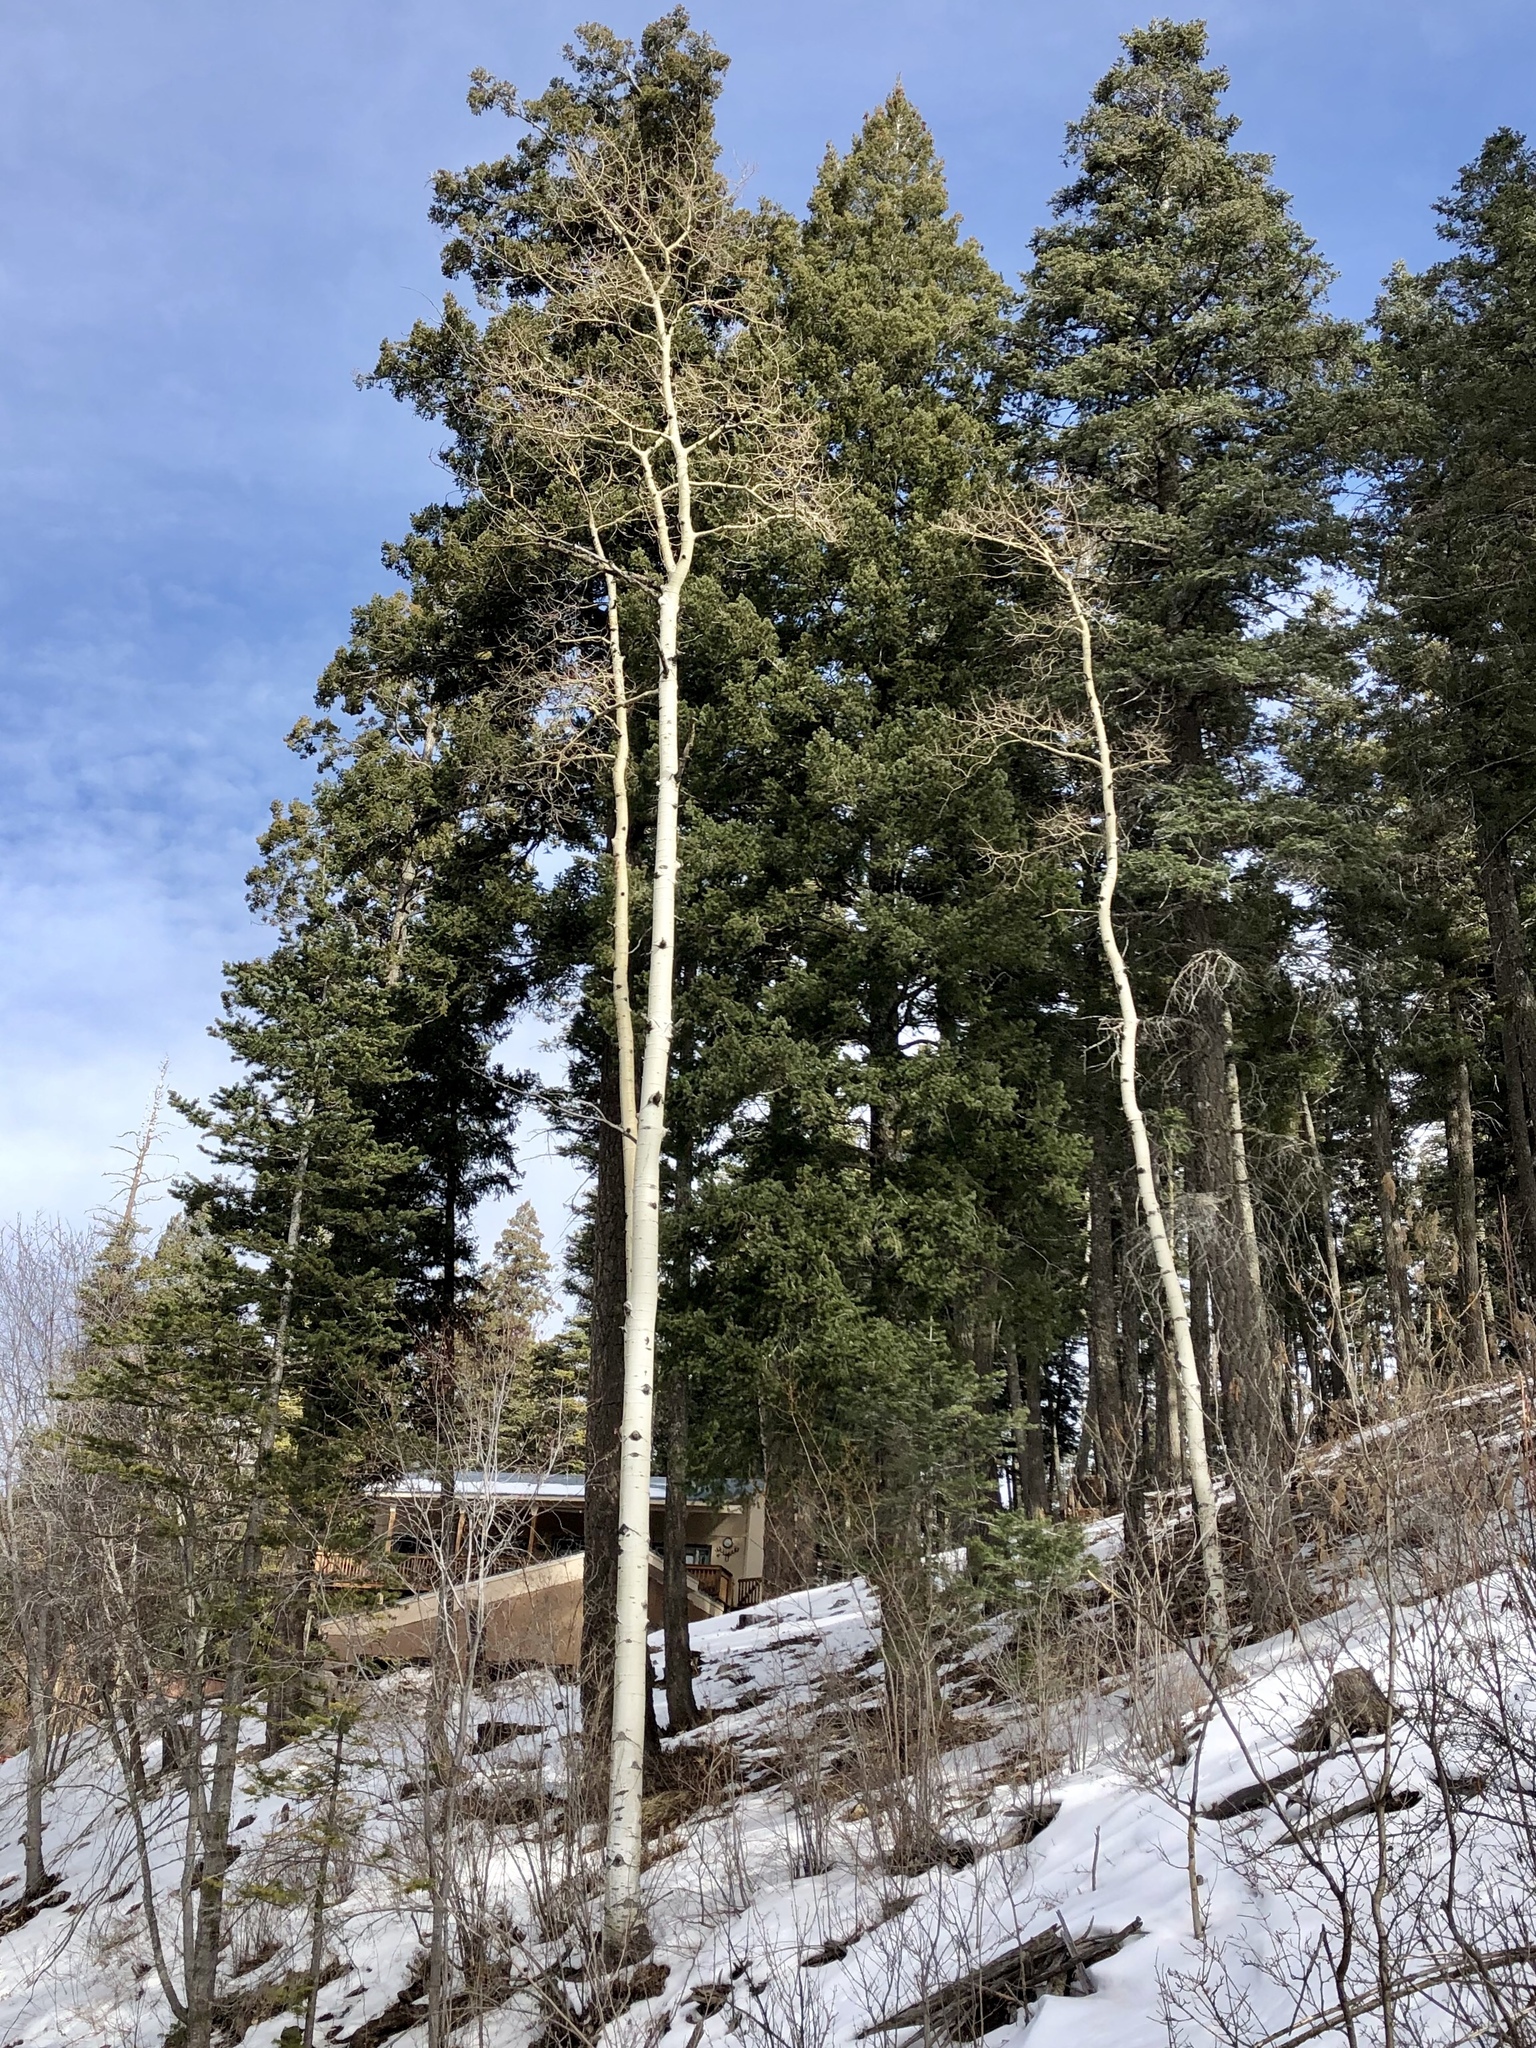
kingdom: Plantae
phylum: Tracheophyta
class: Magnoliopsida
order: Malpighiales
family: Salicaceae
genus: Populus
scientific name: Populus tremuloides
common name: Quaking aspen
